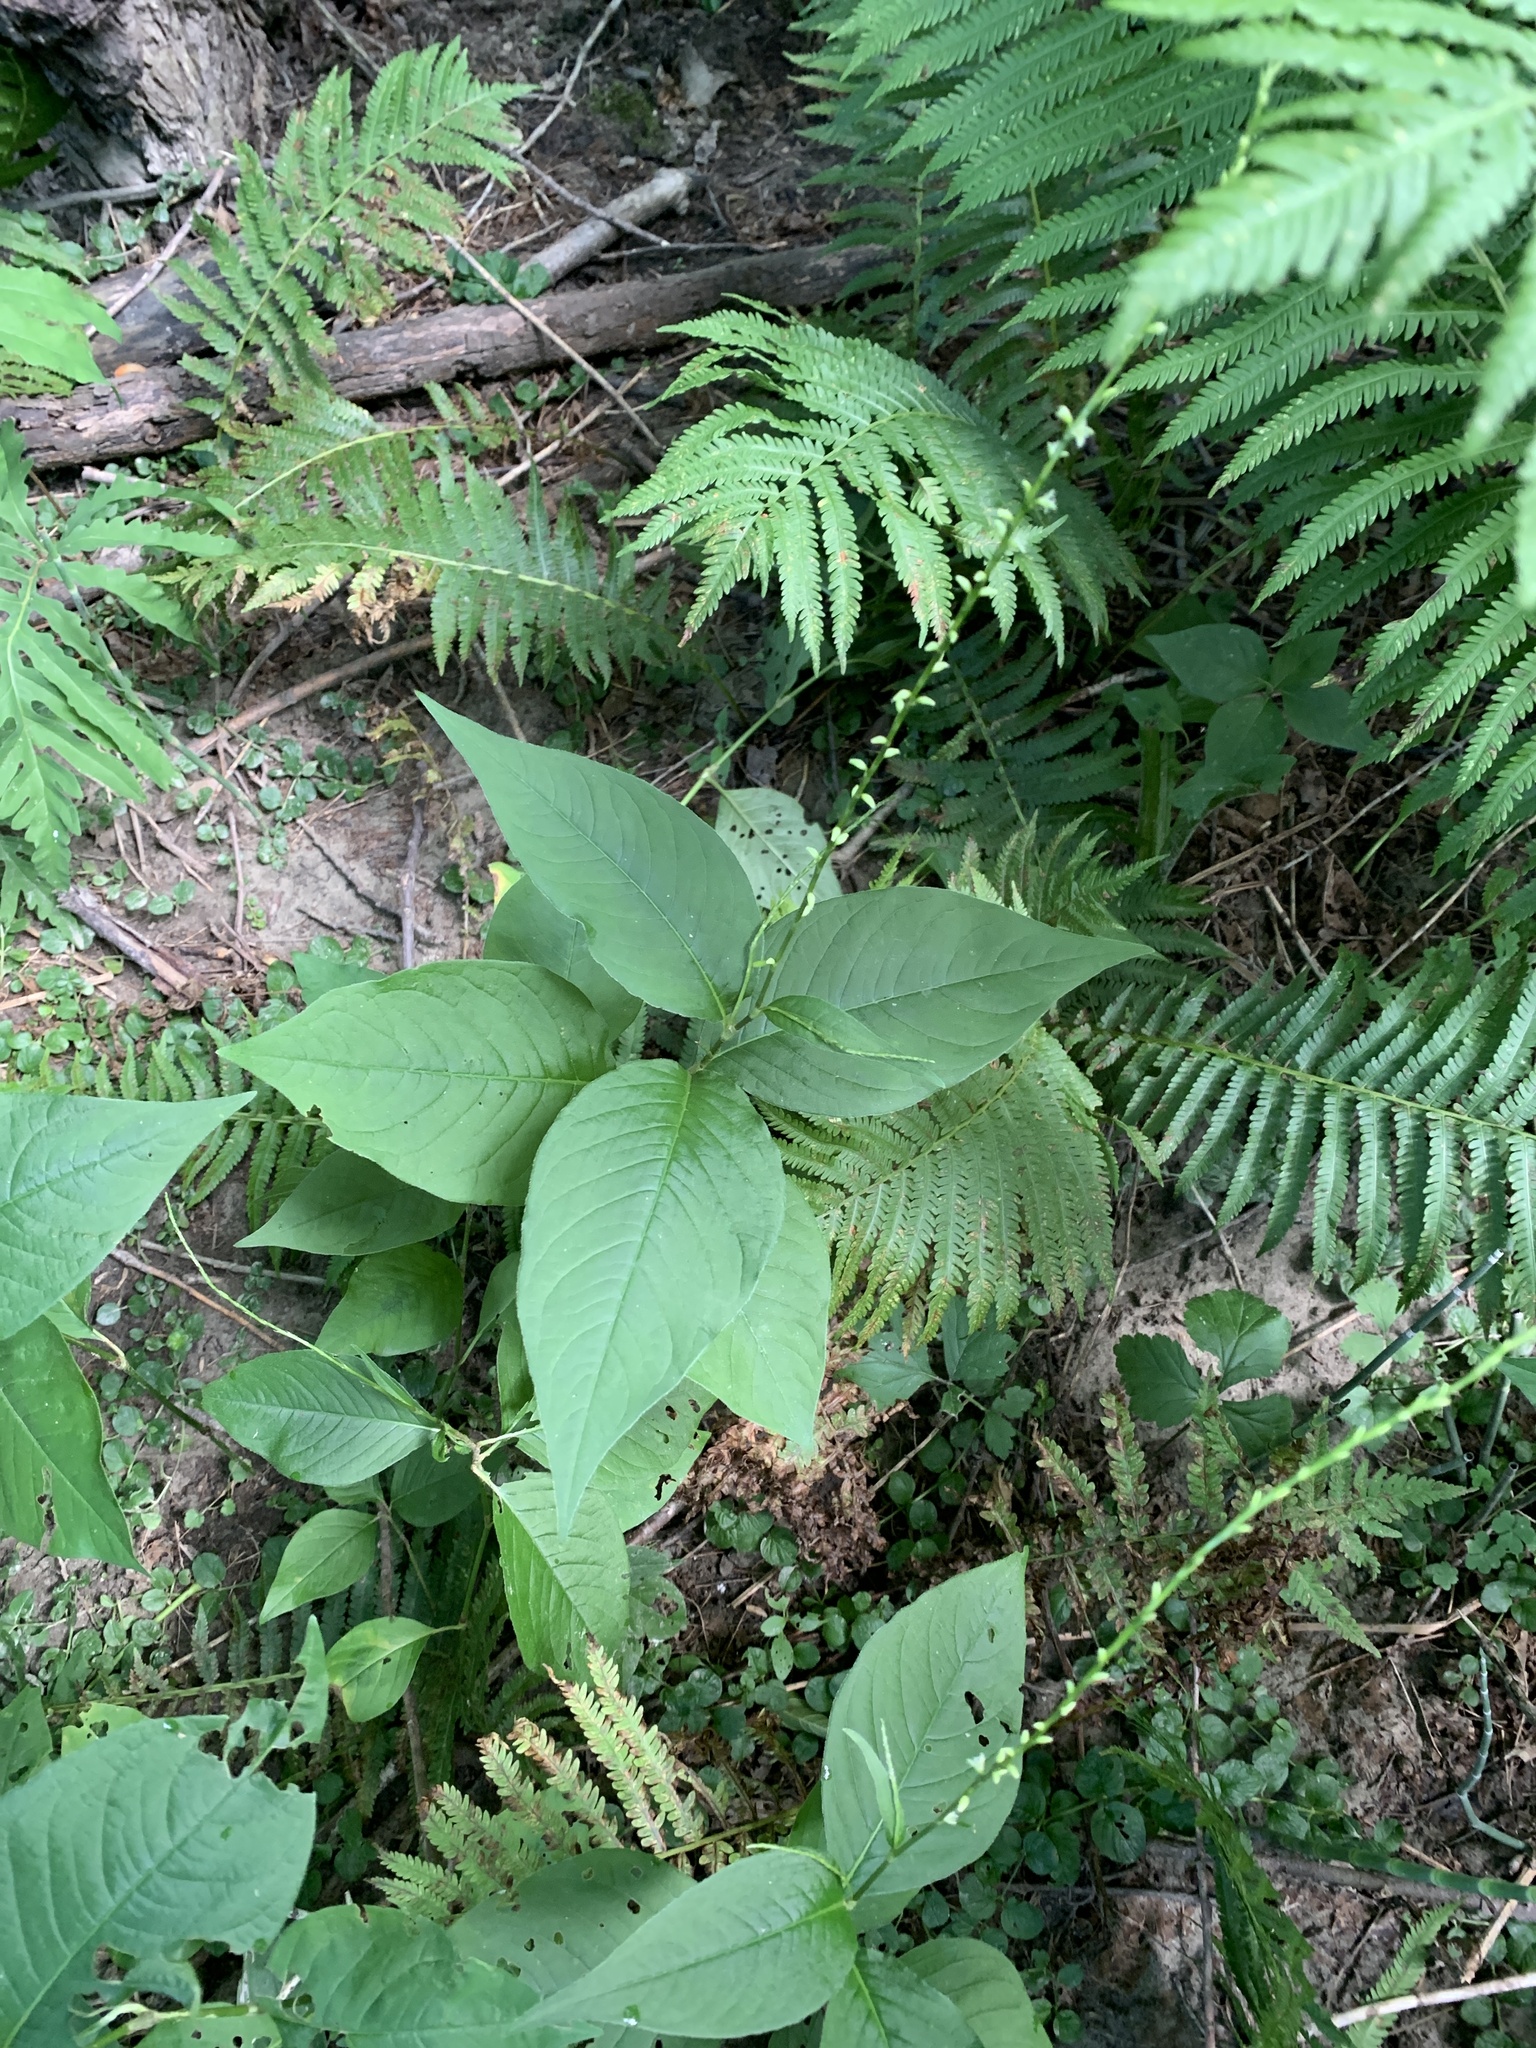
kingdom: Plantae
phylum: Tracheophyta
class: Magnoliopsida
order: Caryophyllales
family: Polygonaceae
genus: Persicaria
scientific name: Persicaria virginiana
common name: Jumpseed
